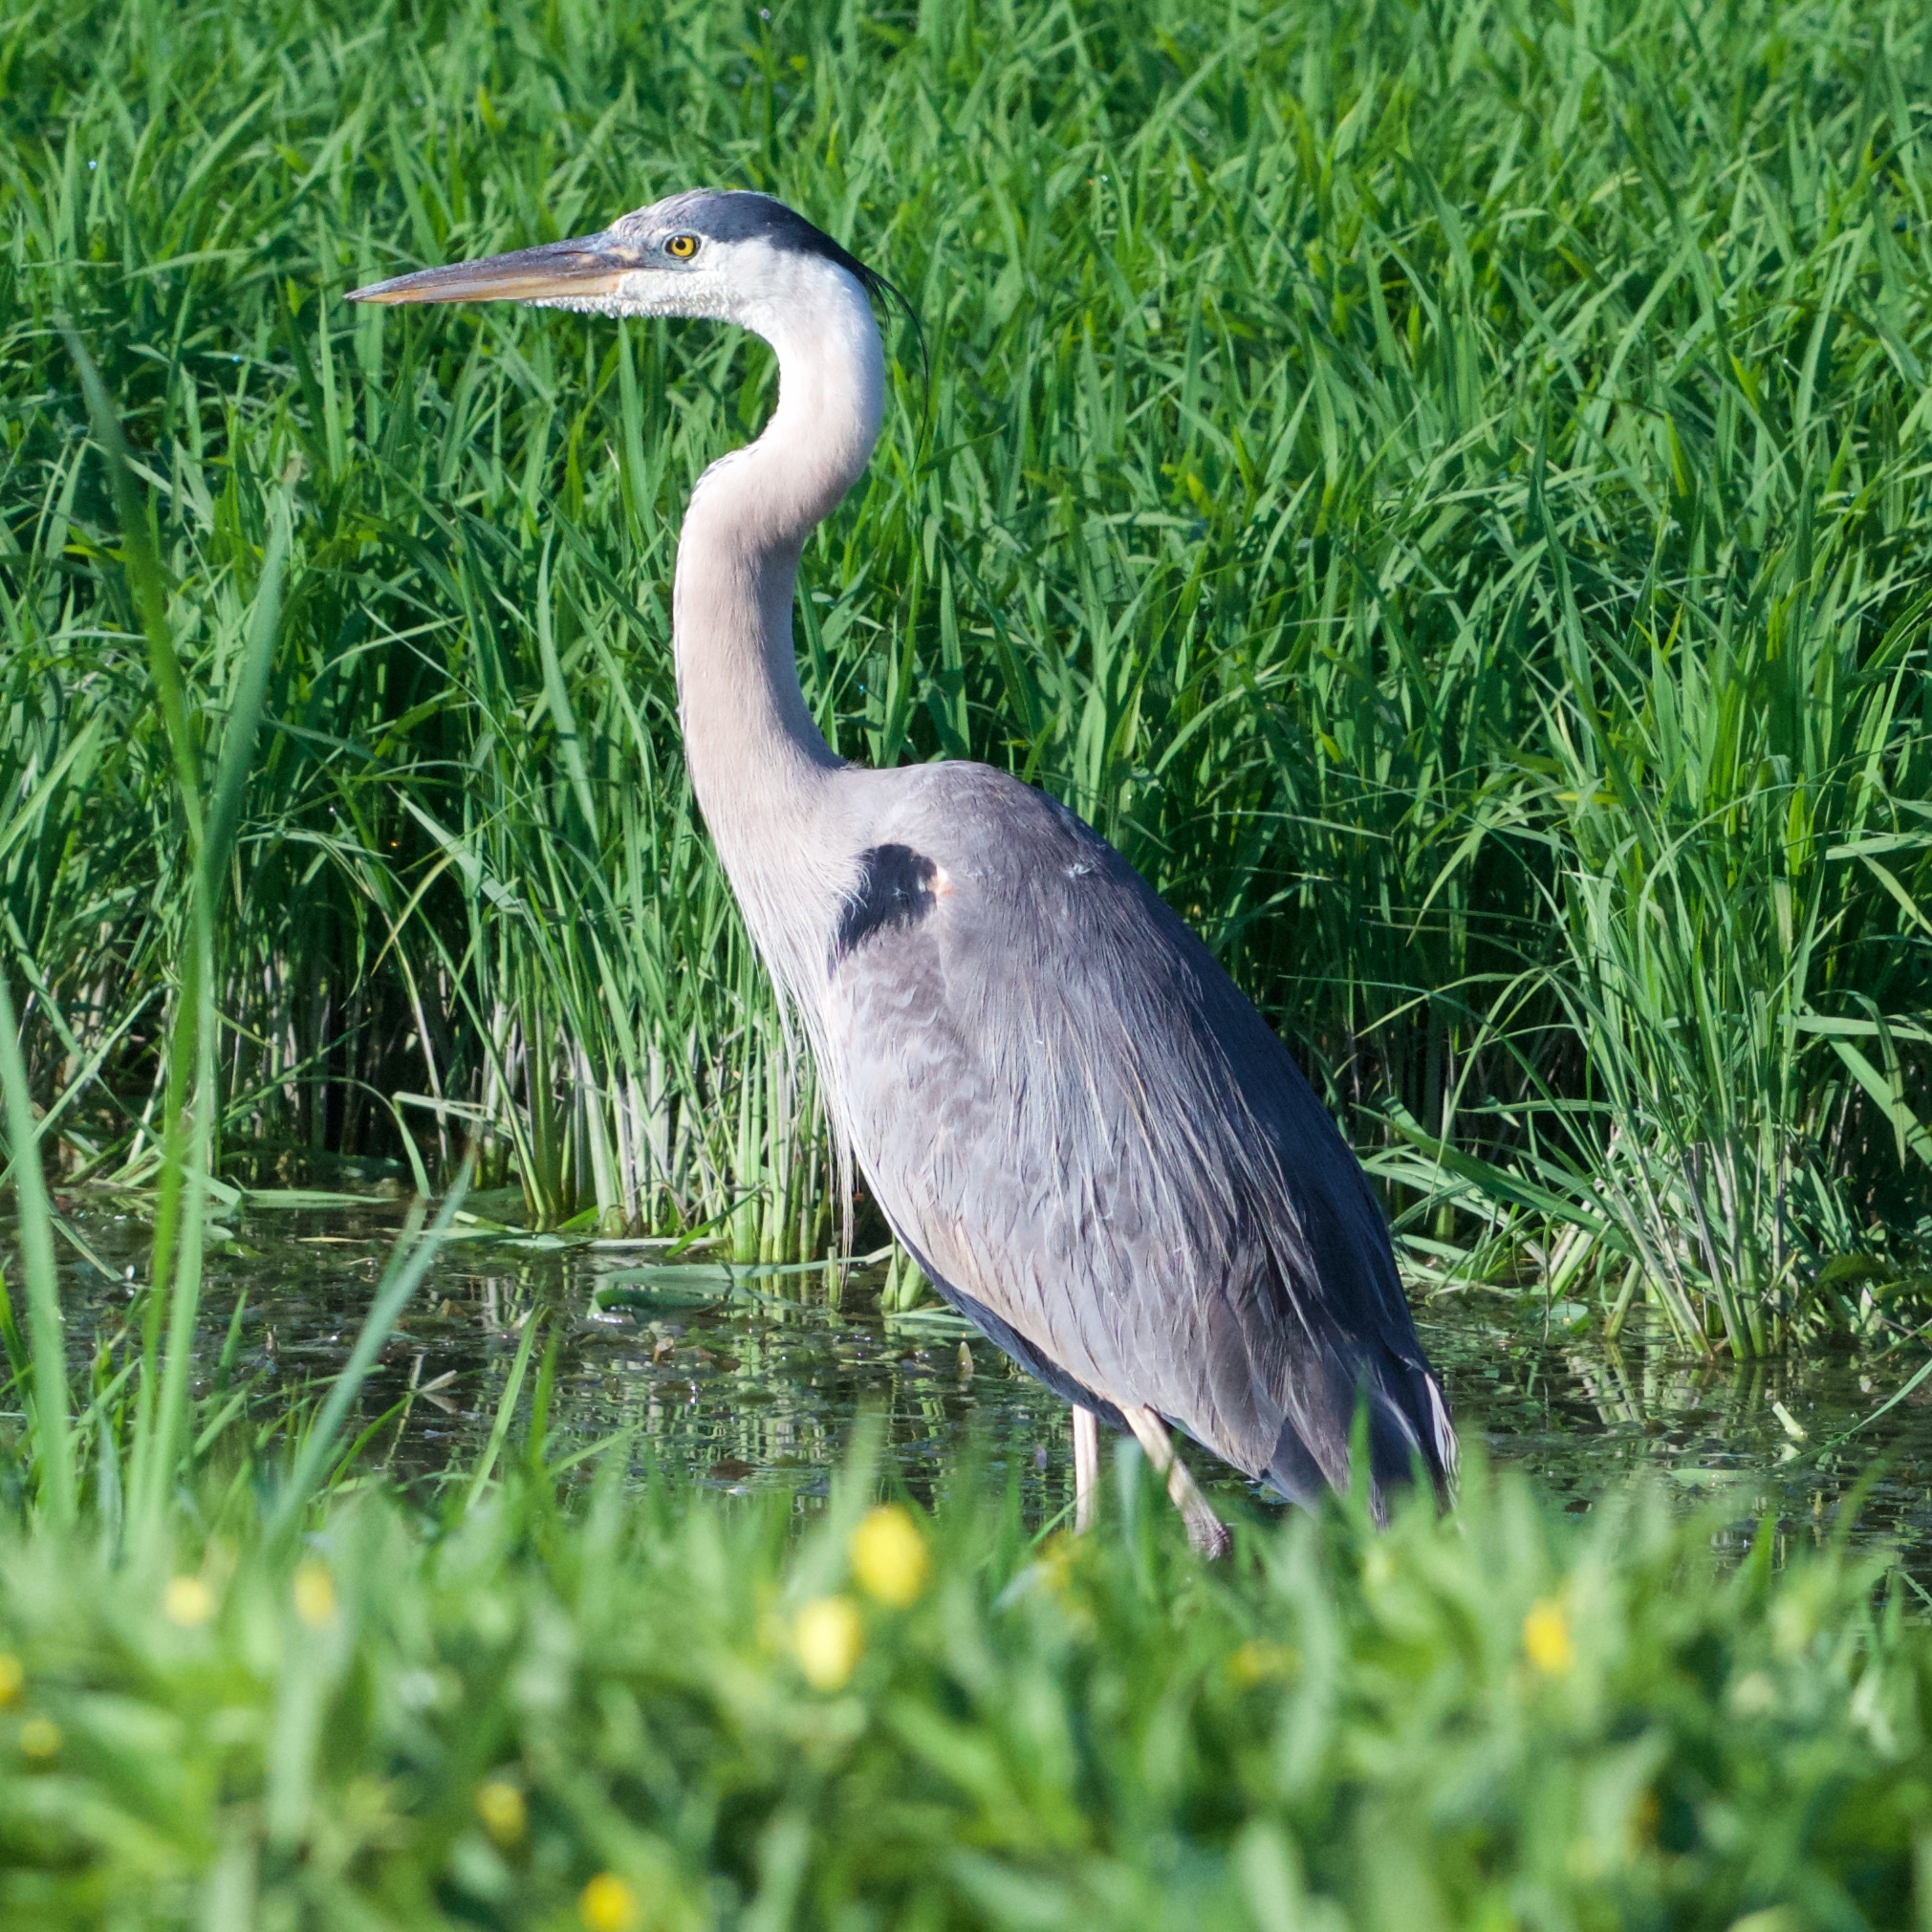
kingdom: Animalia
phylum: Chordata
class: Aves
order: Pelecaniformes
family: Ardeidae
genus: Ardea
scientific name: Ardea herodias
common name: Great blue heron
